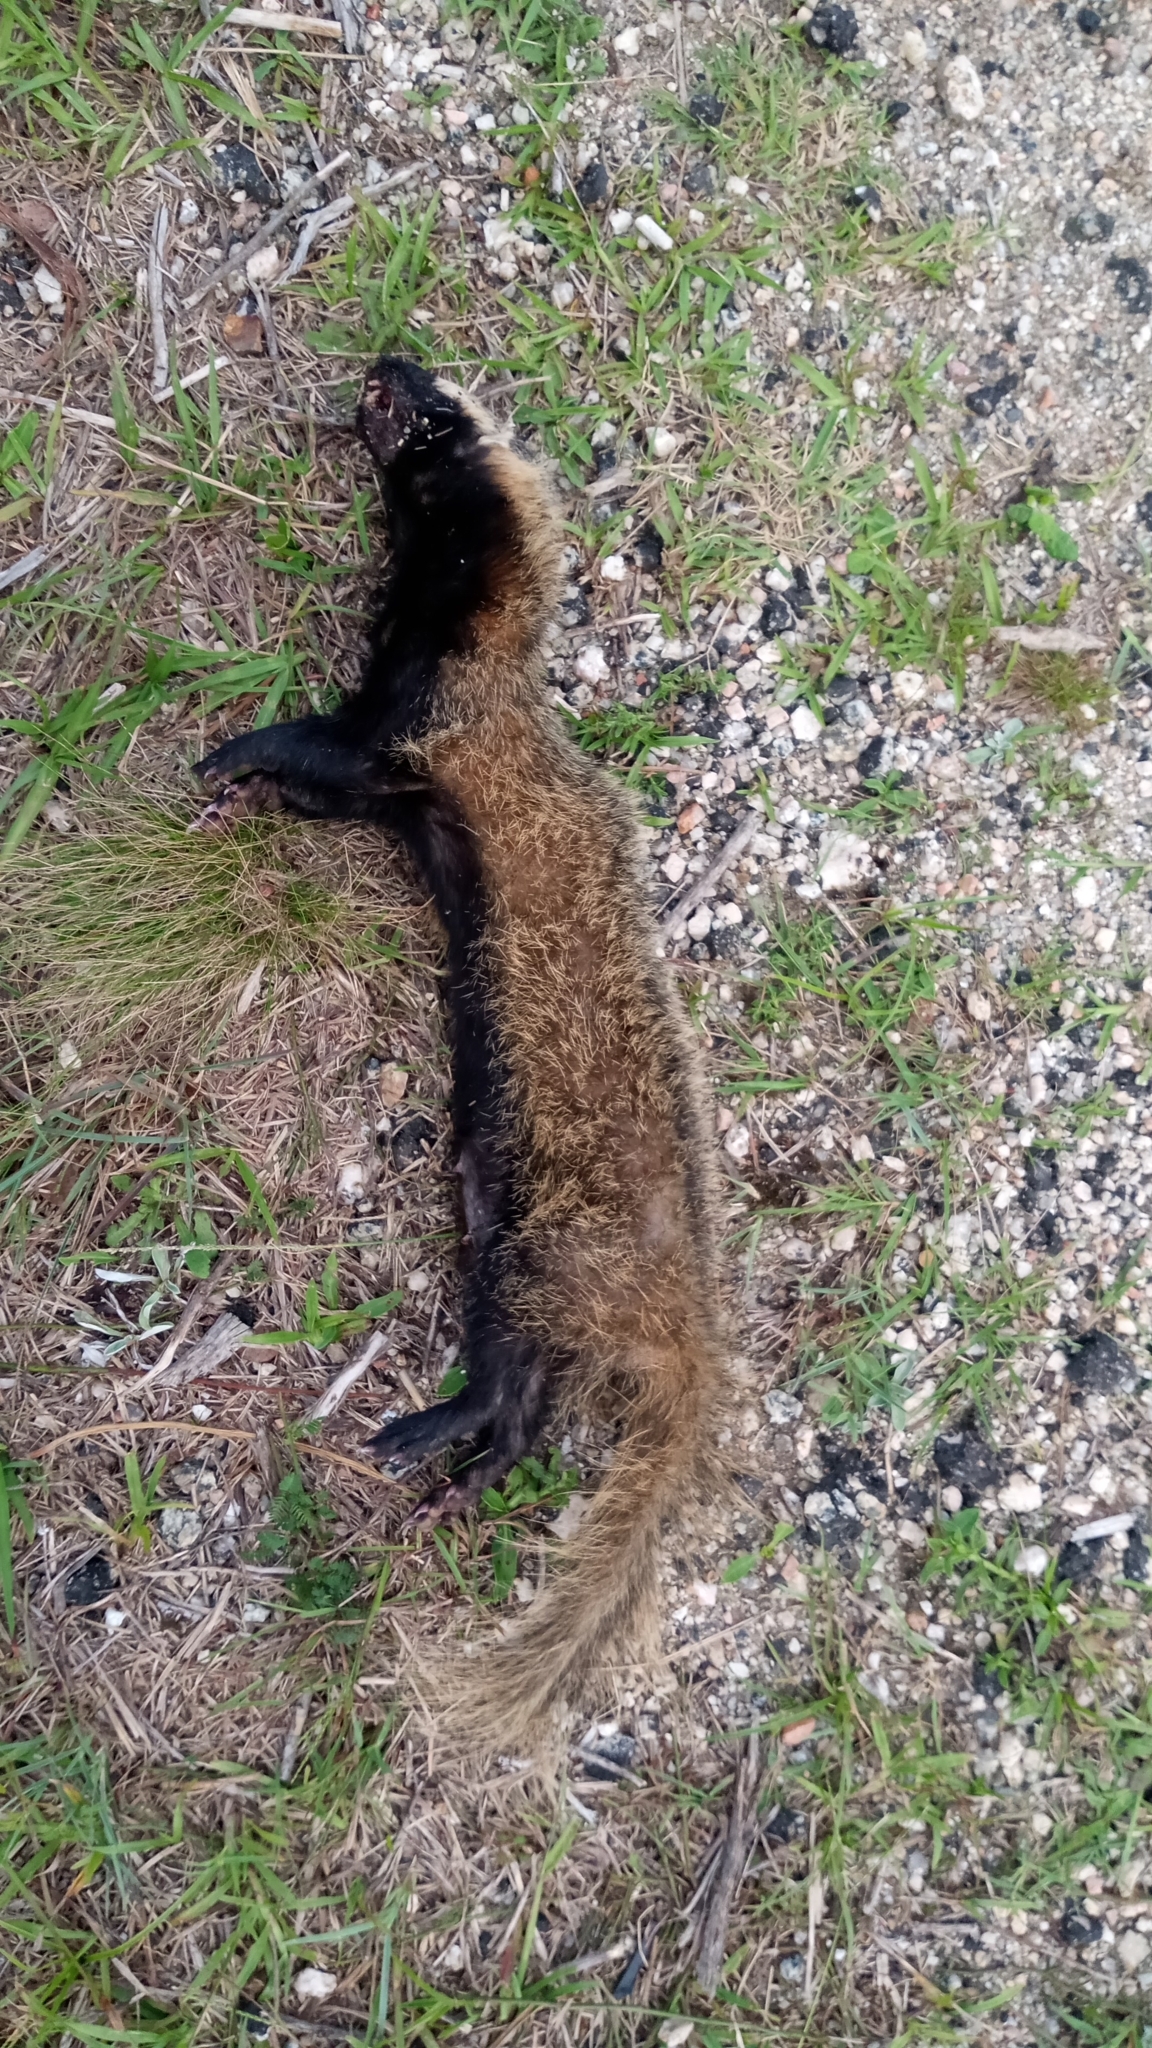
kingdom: Animalia
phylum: Chordata
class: Mammalia
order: Carnivora
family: Mustelidae
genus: Galictis
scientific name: Galictis cuja
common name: Lesser grison
